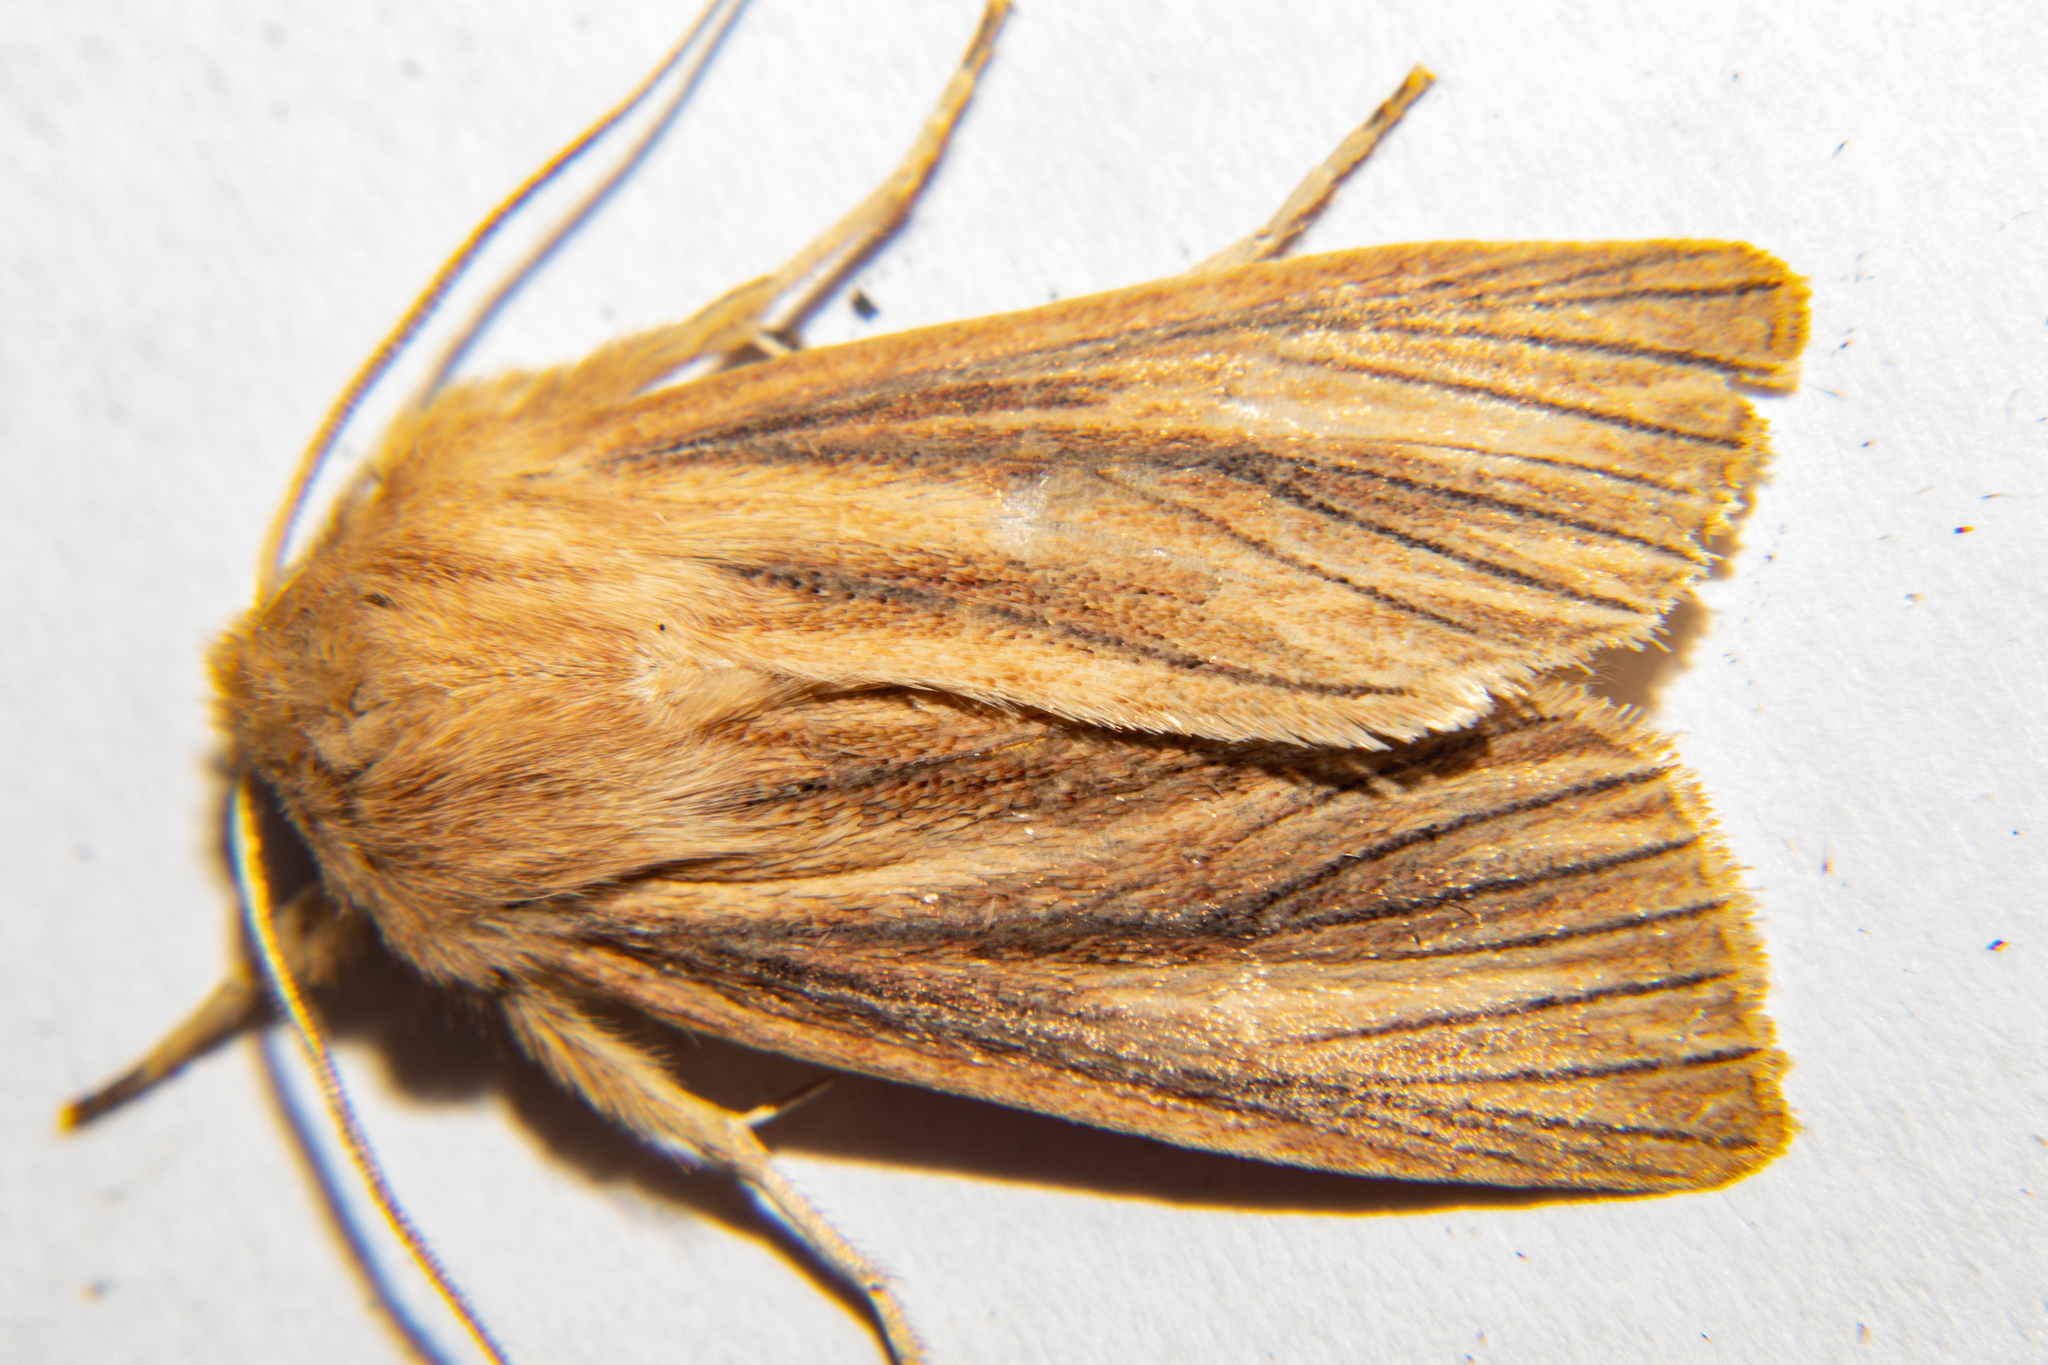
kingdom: Animalia
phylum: Arthropoda
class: Insecta
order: Lepidoptera
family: Noctuidae
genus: Ichneutica
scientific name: Ichneutica arotis
